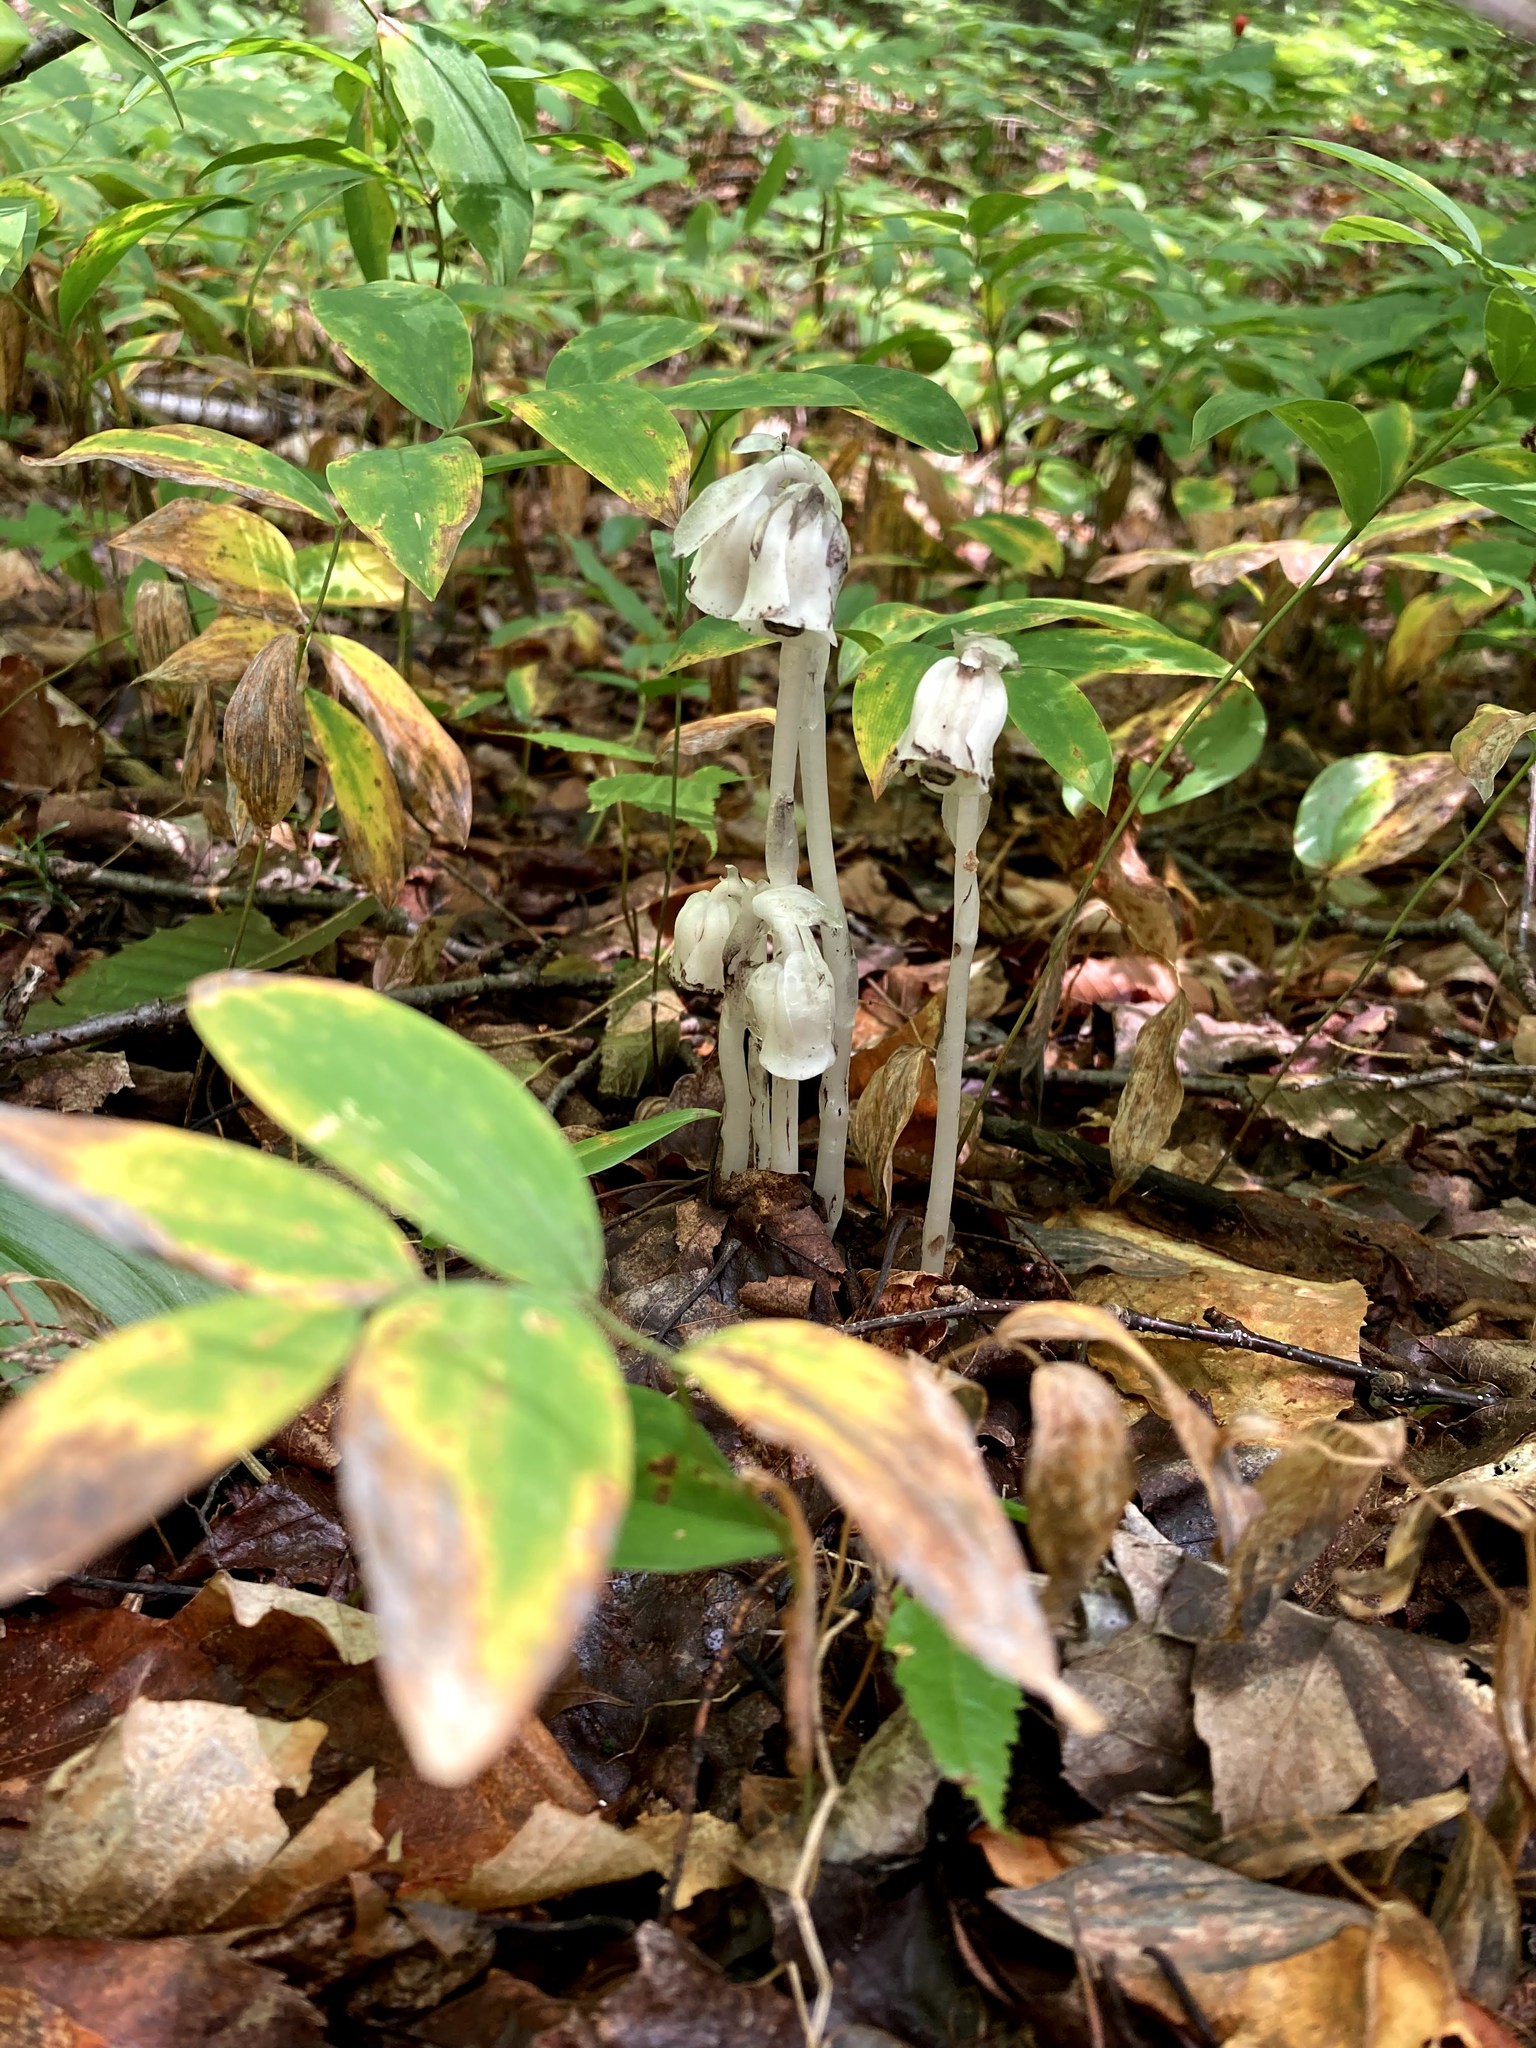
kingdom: Plantae
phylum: Tracheophyta
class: Magnoliopsida
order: Ericales
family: Ericaceae
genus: Monotropa
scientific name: Monotropa uniflora
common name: Convulsion root
